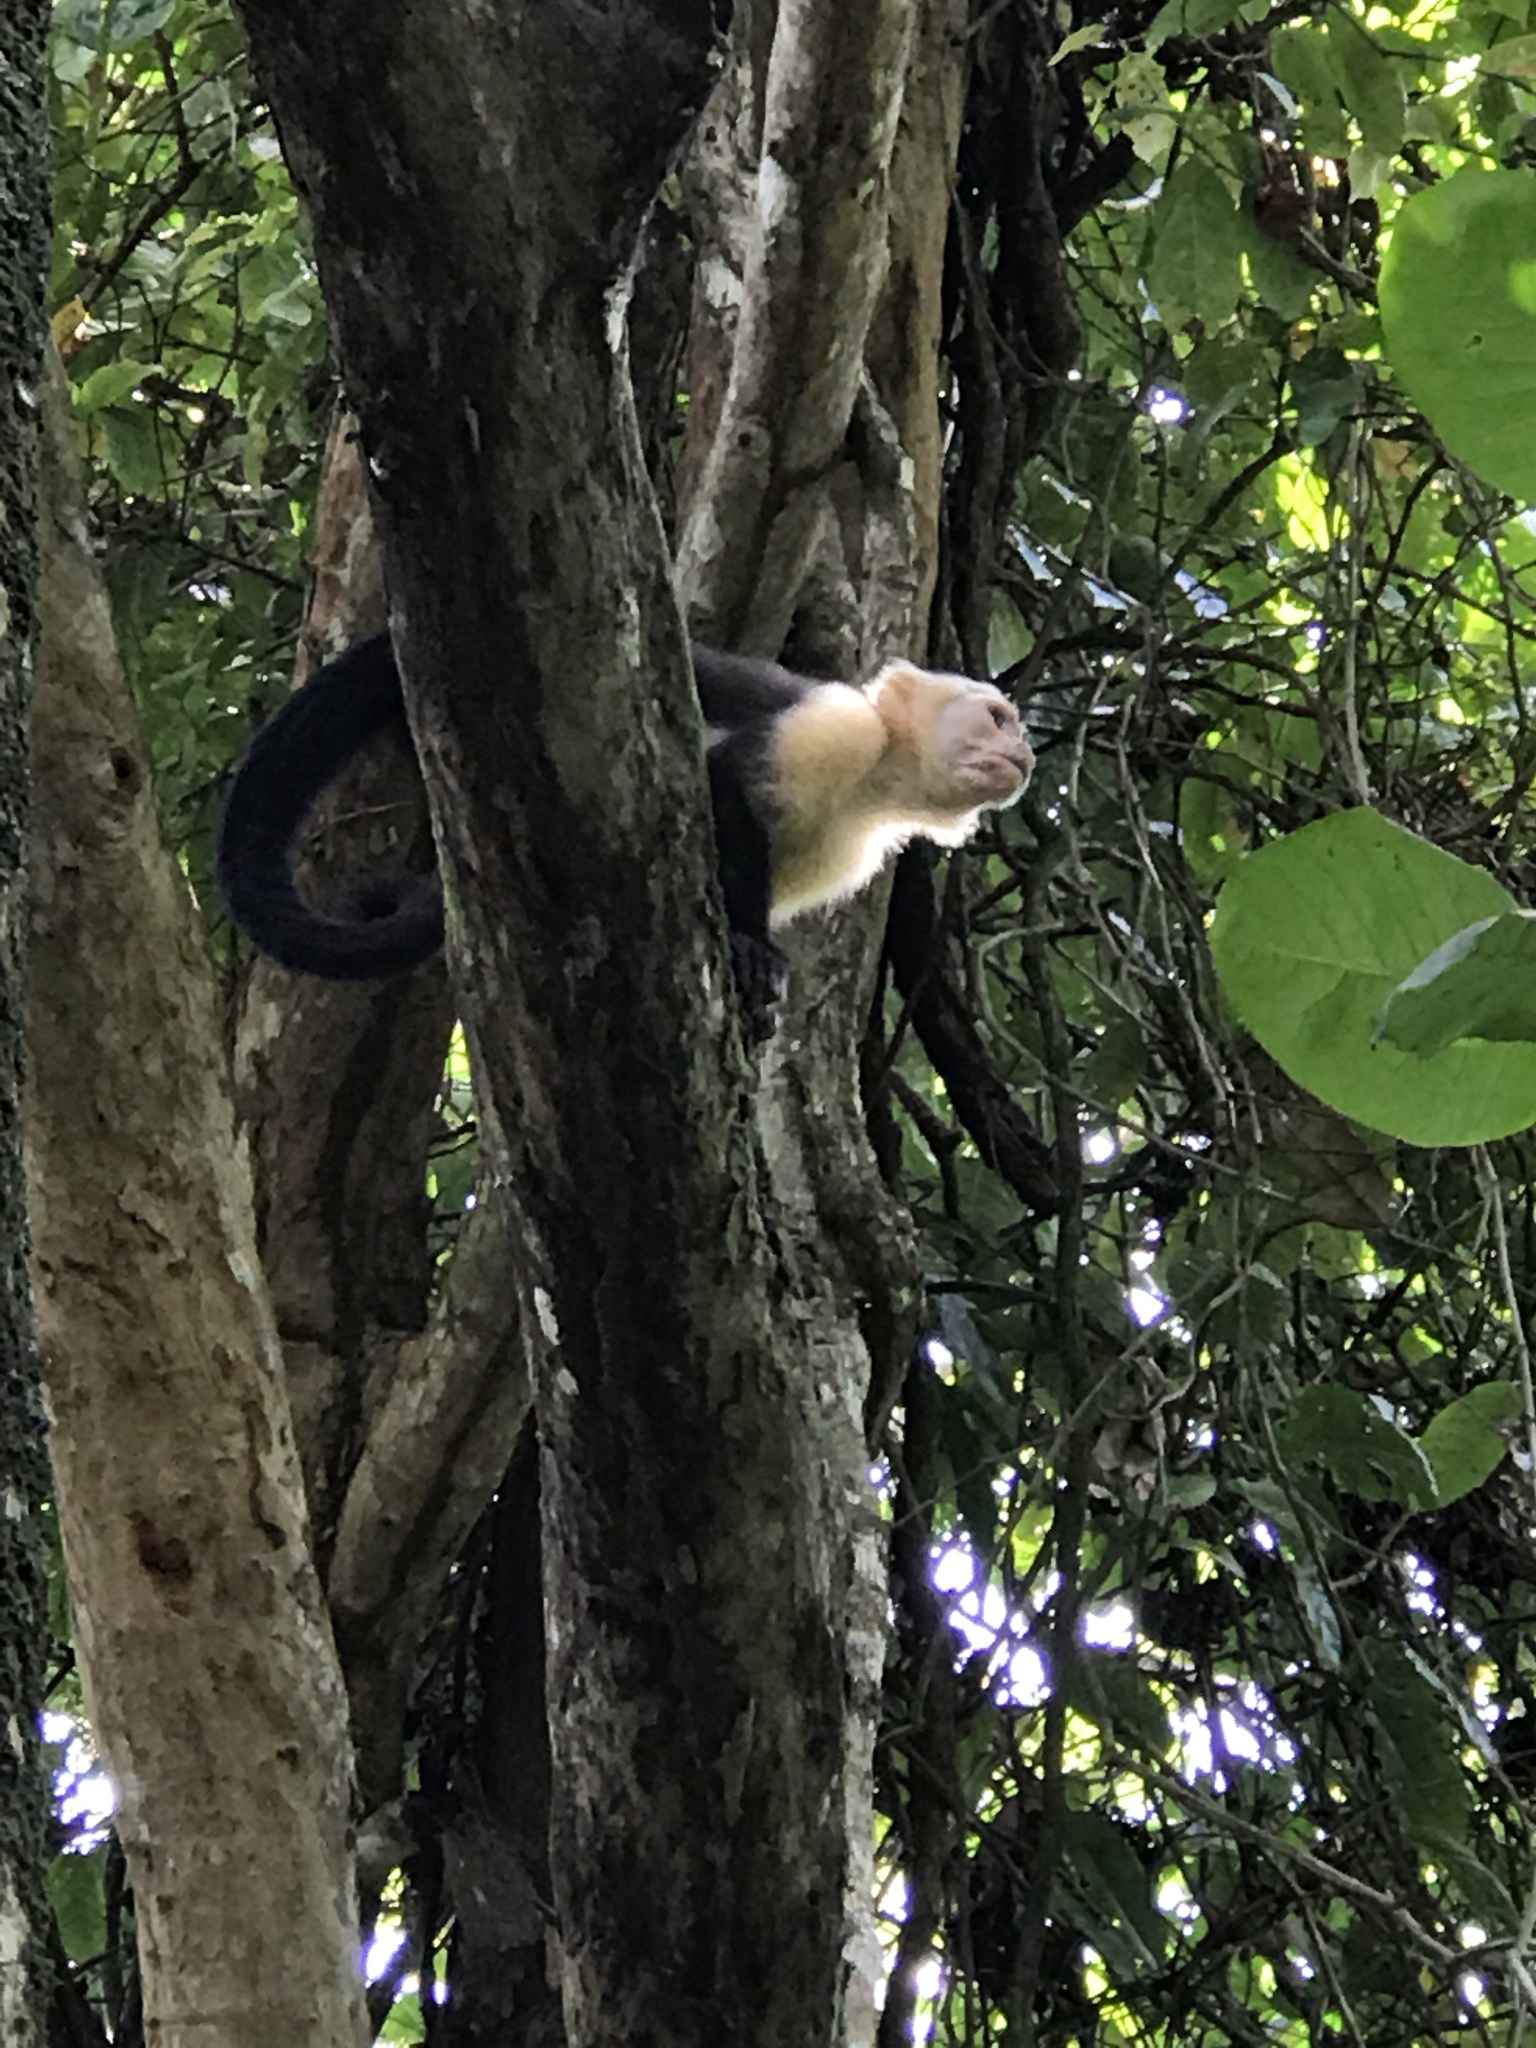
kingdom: Animalia
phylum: Chordata
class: Mammalia
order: Primates
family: Cebidae
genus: Cebus
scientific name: Cebus imitator
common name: Panamanian white-faced capuchin
